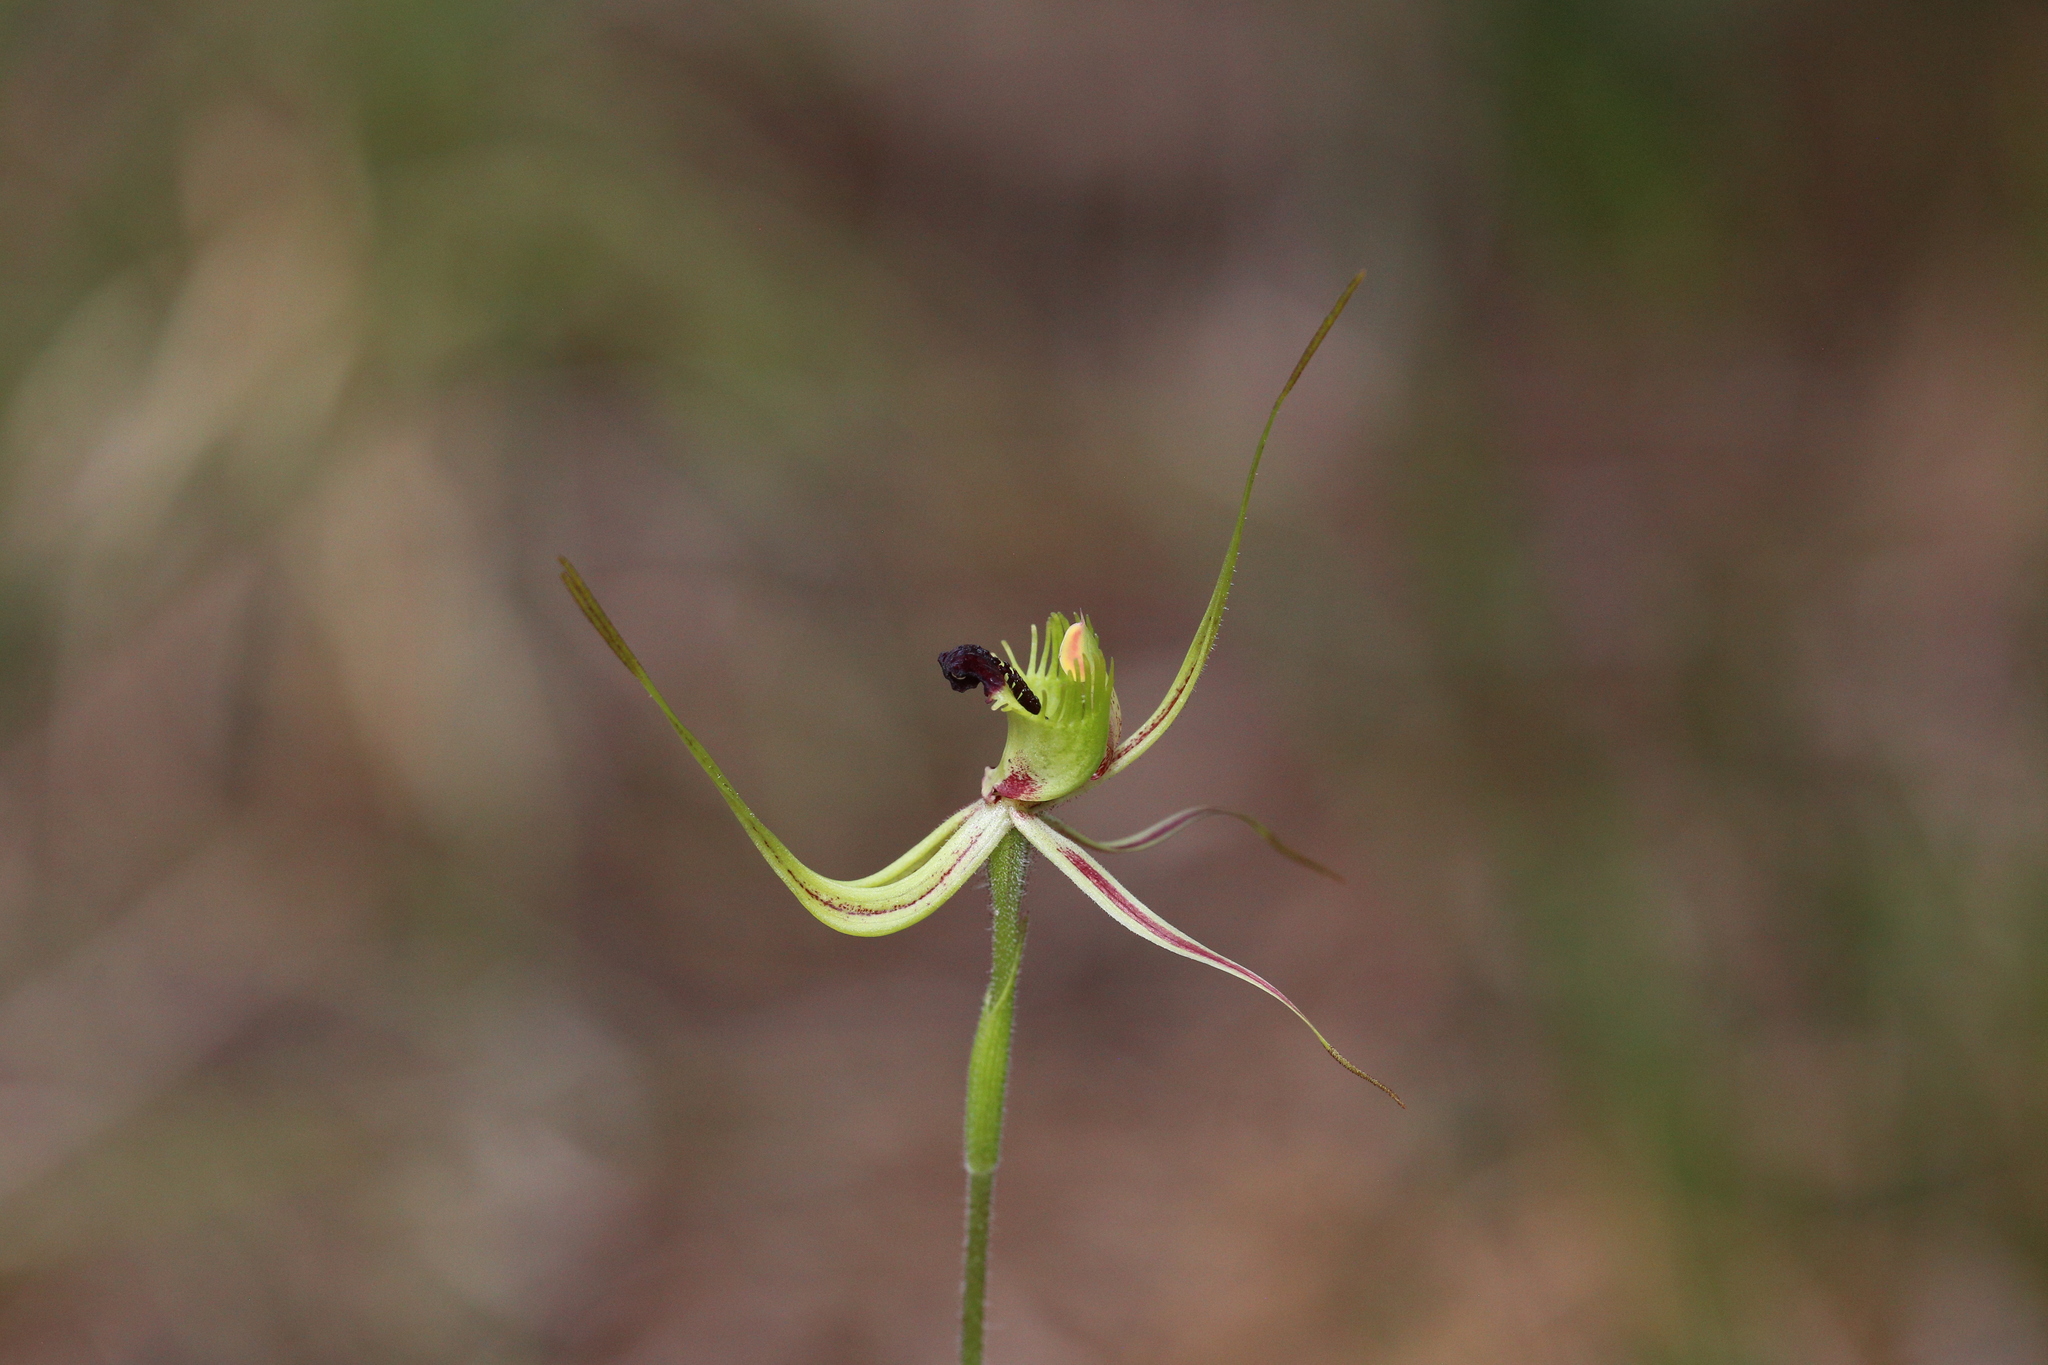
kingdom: Plantae
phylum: Tracheophyta
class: Liliopsida
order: Asparagales
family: Orchidaceae
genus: Caladenia
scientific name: Caladenia attingens
